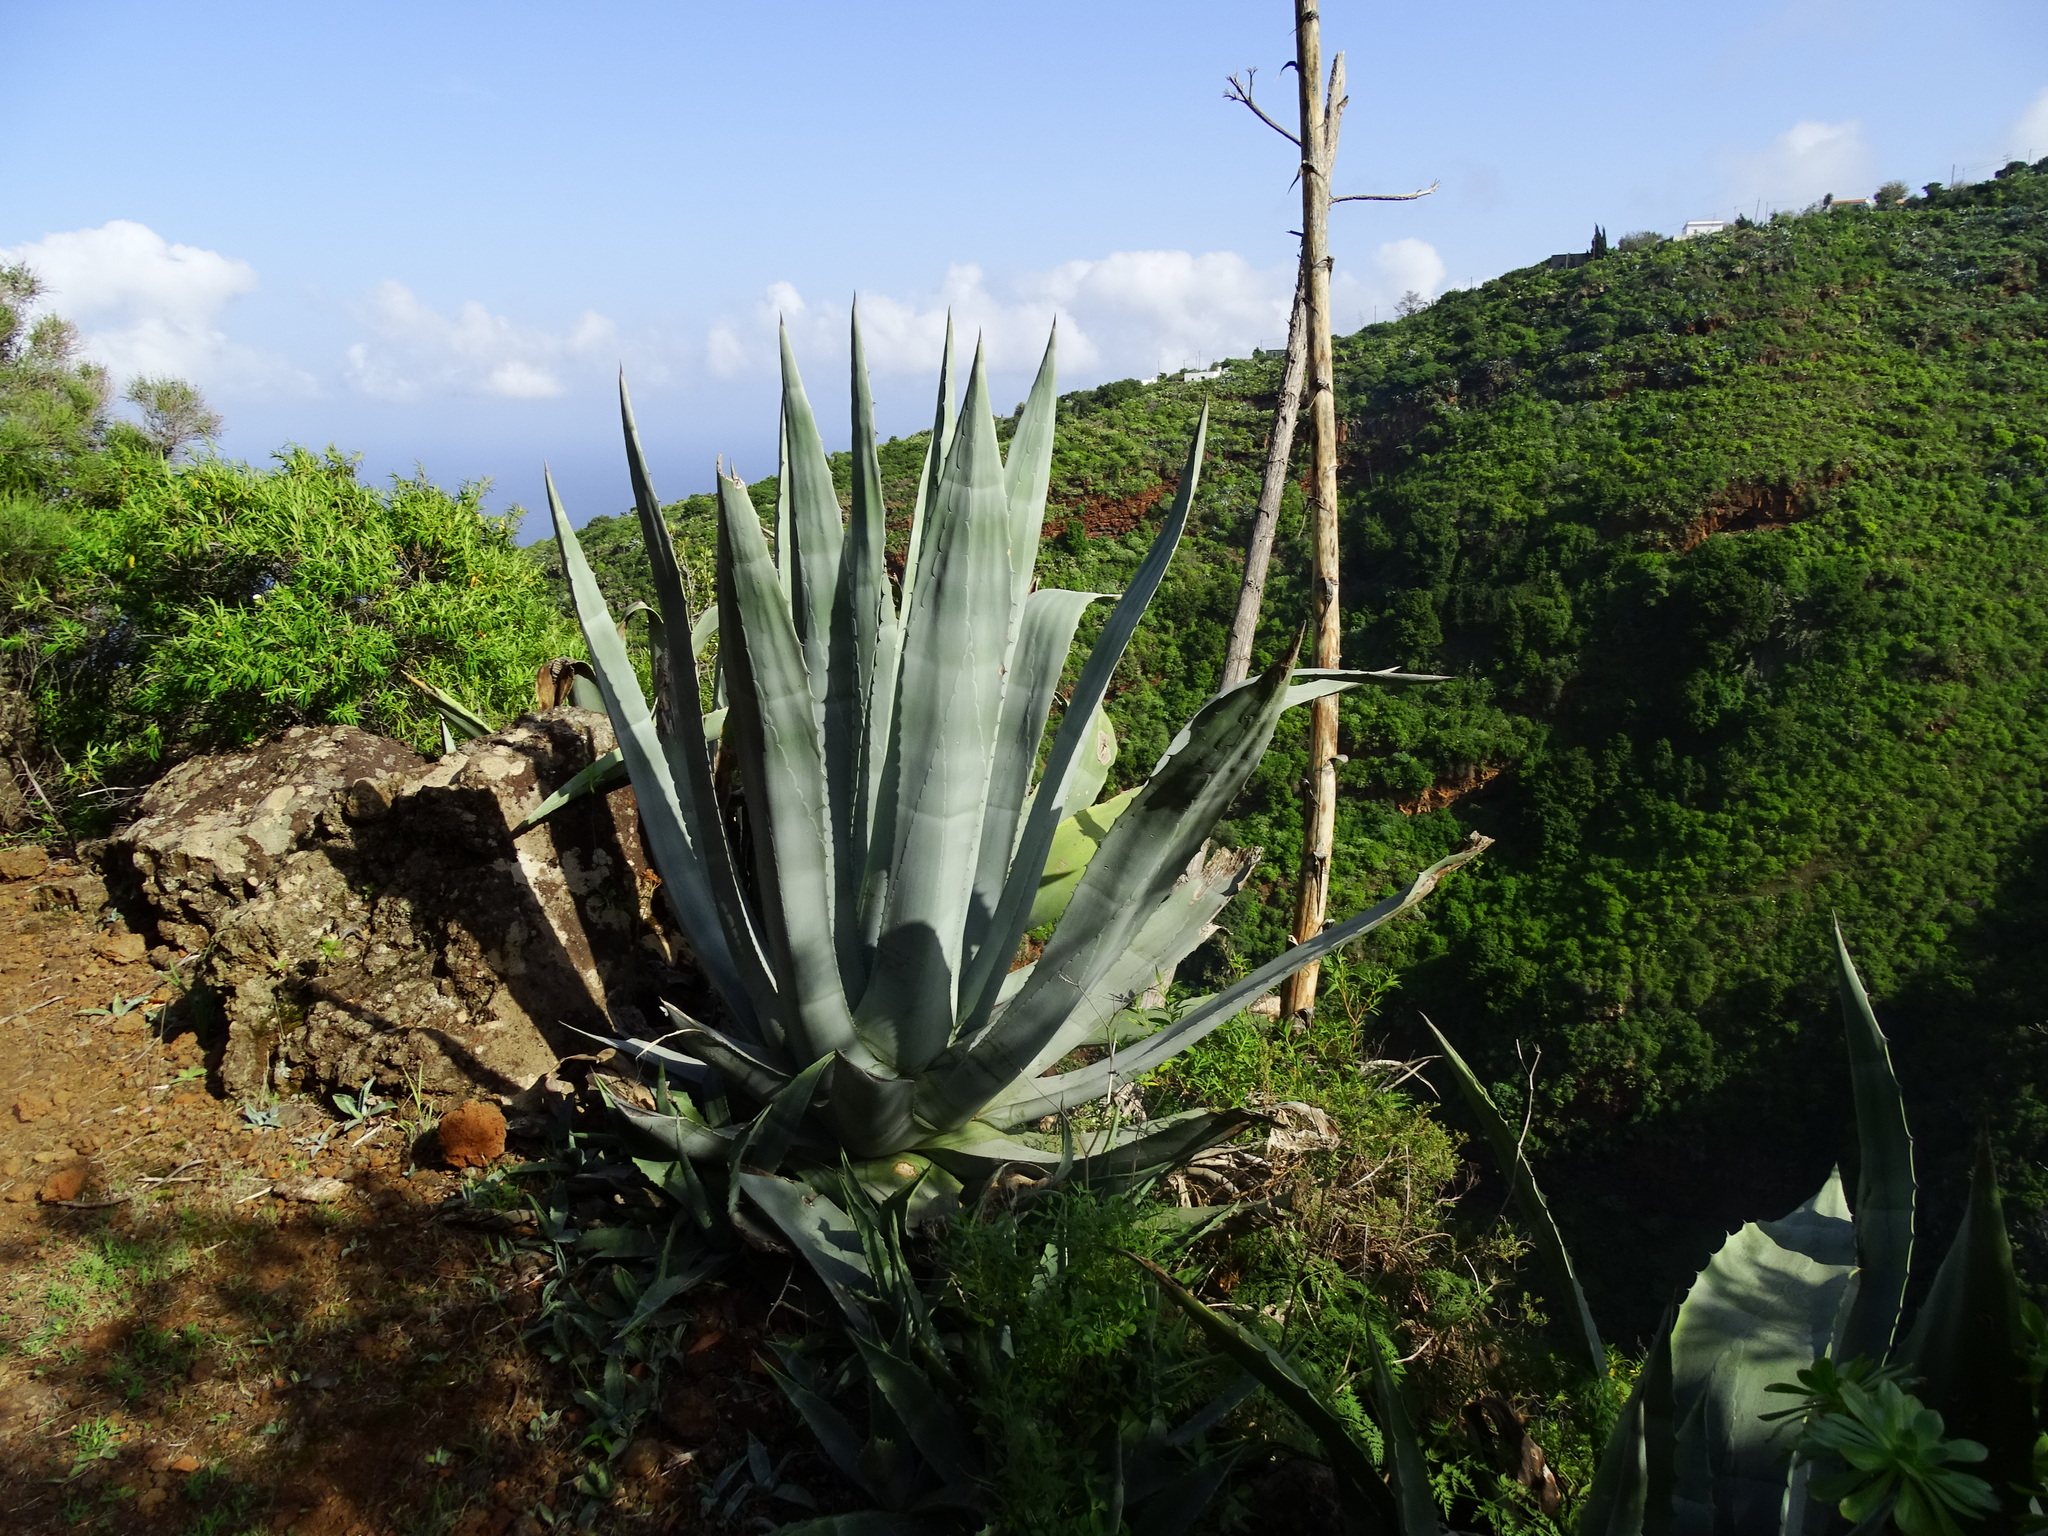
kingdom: Plantae
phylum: Tracheophyta
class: Liliopsida
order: Asparagales
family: Asparagaceae
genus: Agave
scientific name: Agave americana
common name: Centuryplant
